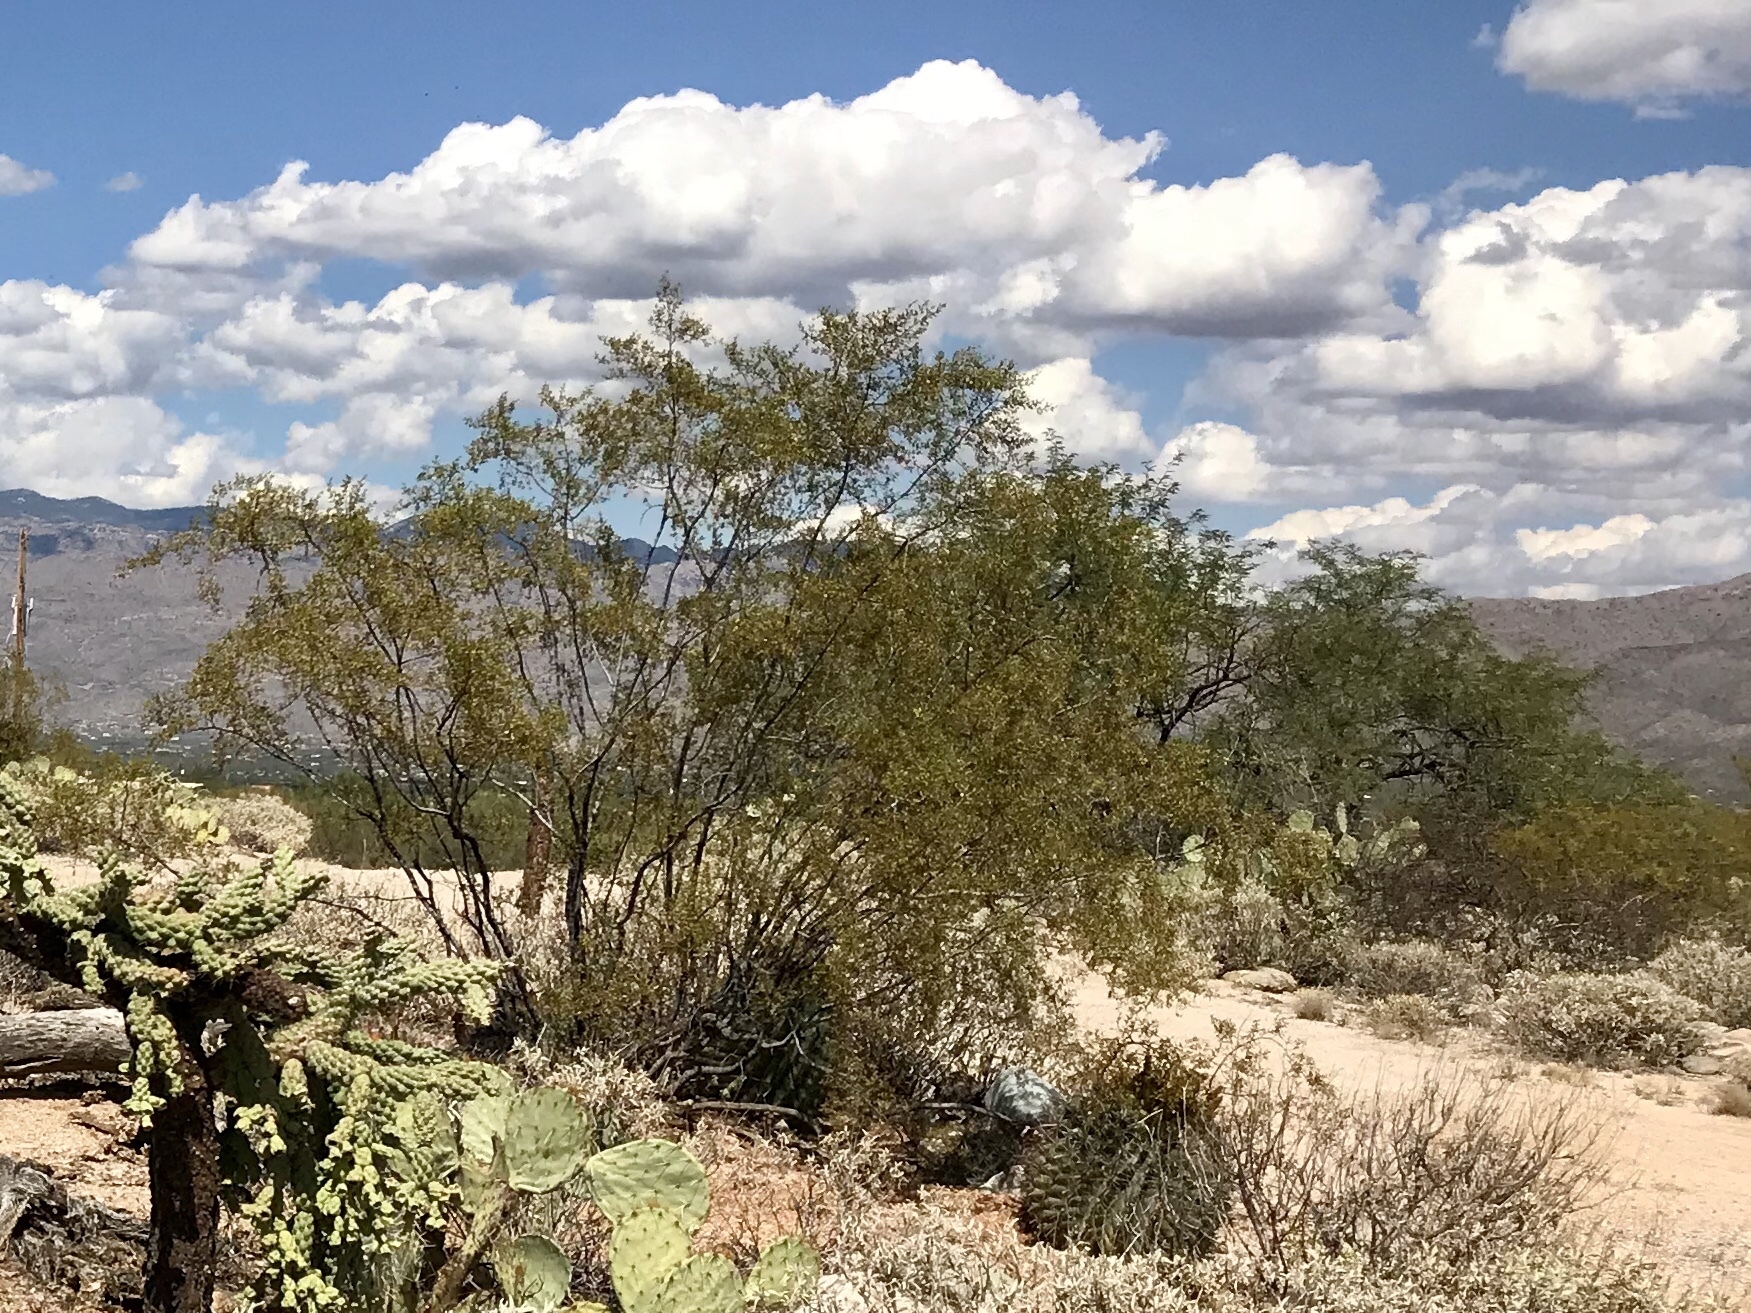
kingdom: Plantae
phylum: Tracheophyta
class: Magnoliopsida
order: Zygophyllales
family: Zygophyllaceae
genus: Larrea
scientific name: Larrea tridentata
